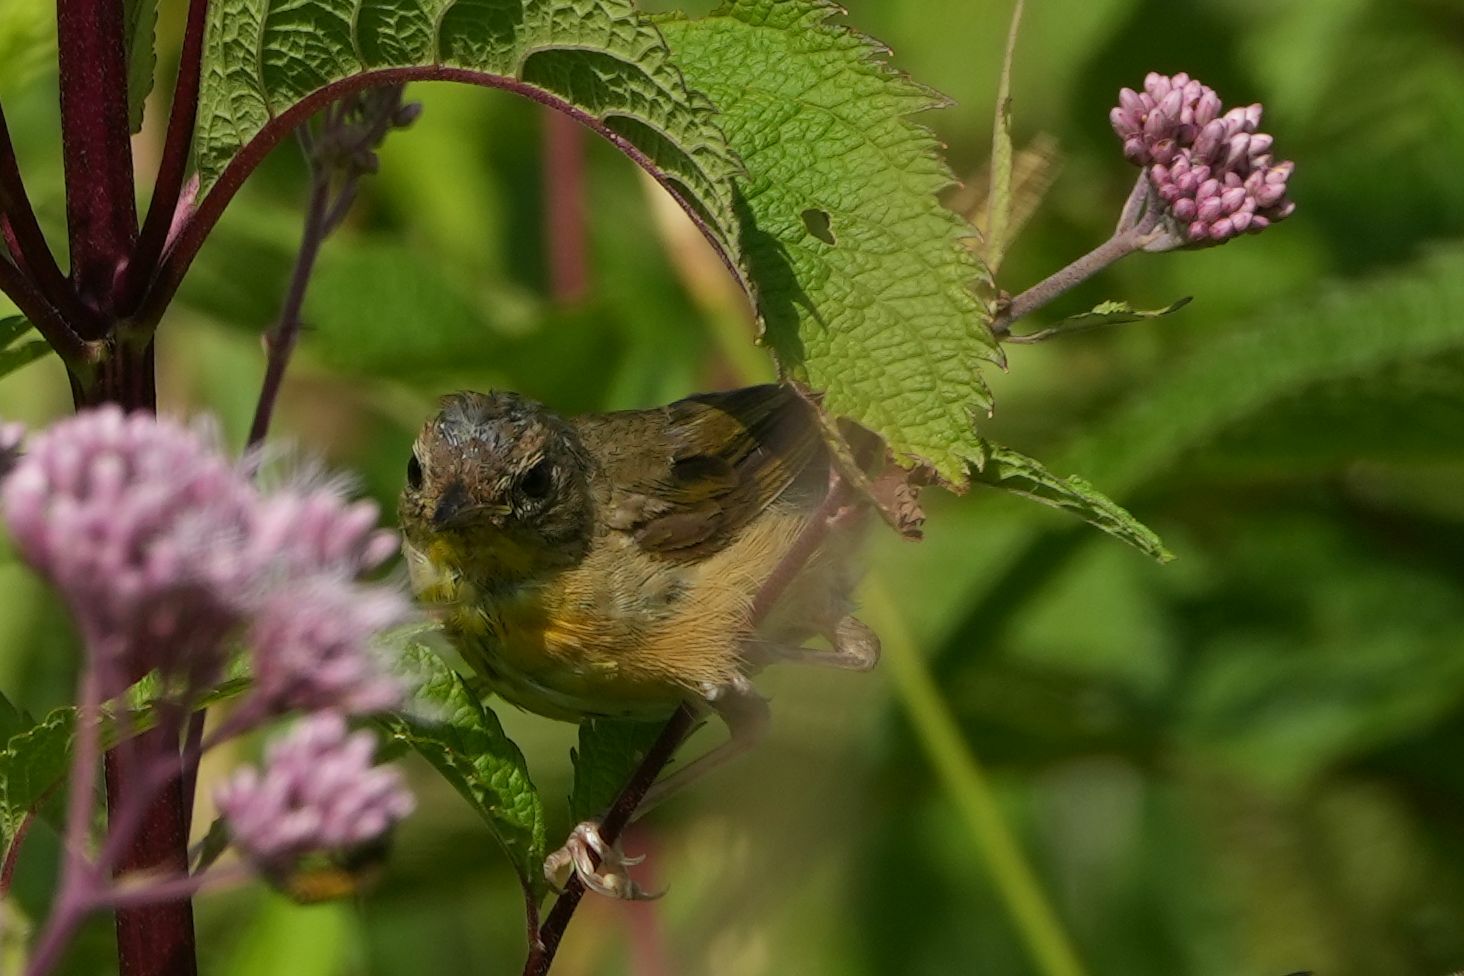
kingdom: Animalia
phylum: Chordata
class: Aves
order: Passeriformes
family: Parulidae
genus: Geothlypis
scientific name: Geothlypis trichas
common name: Common yellowthroat
